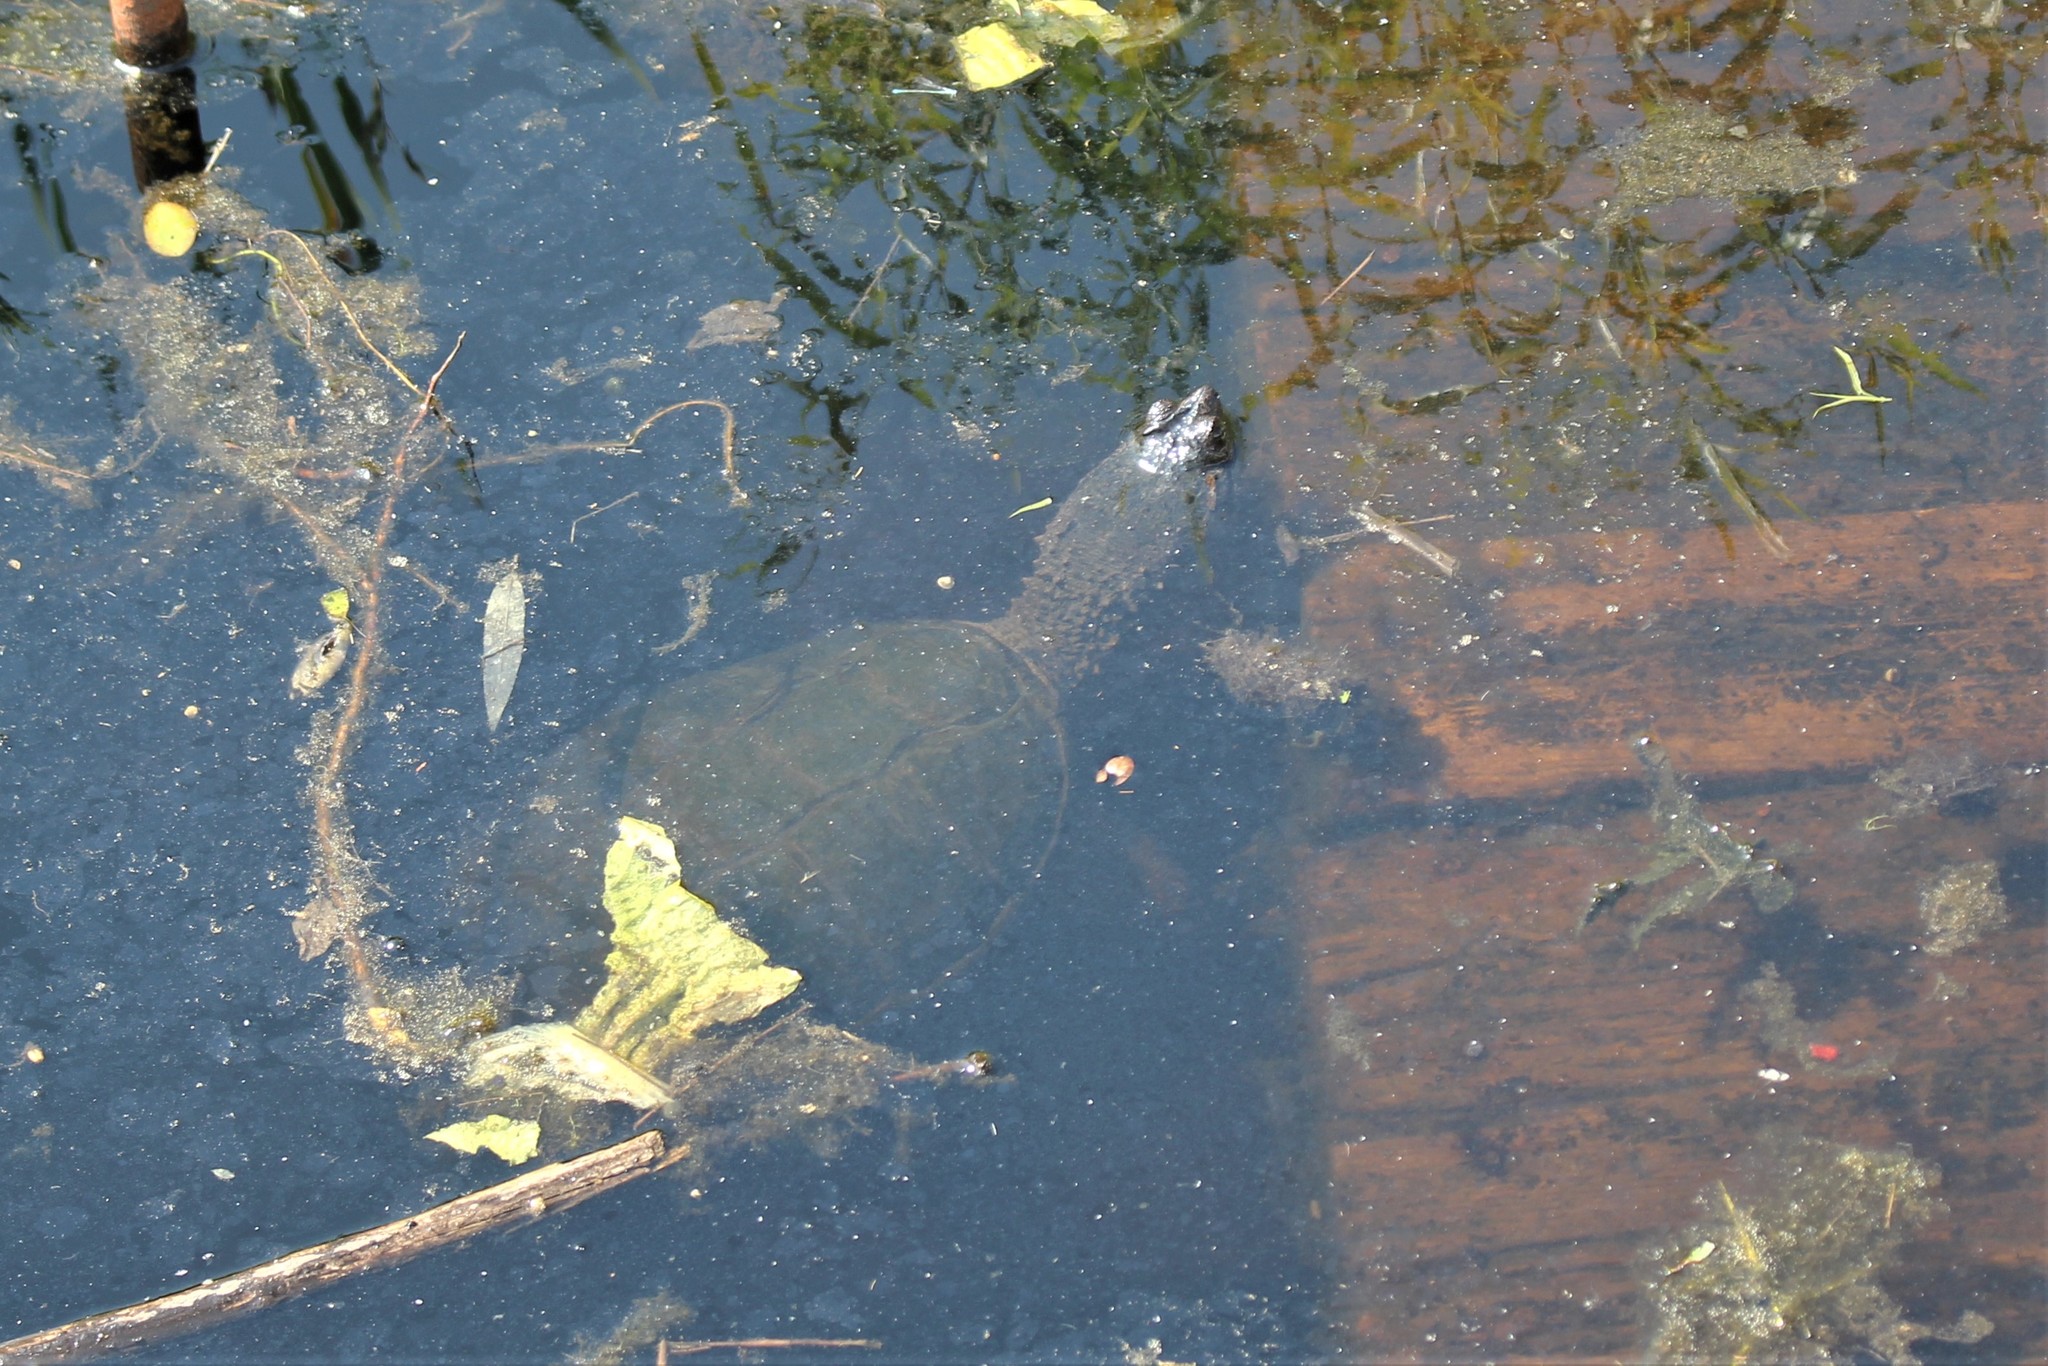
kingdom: Animalia
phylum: Chordata
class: Testudines
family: Chelydridae
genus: Chelydra
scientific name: Chelydra serpentina
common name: Common snapping turtle
